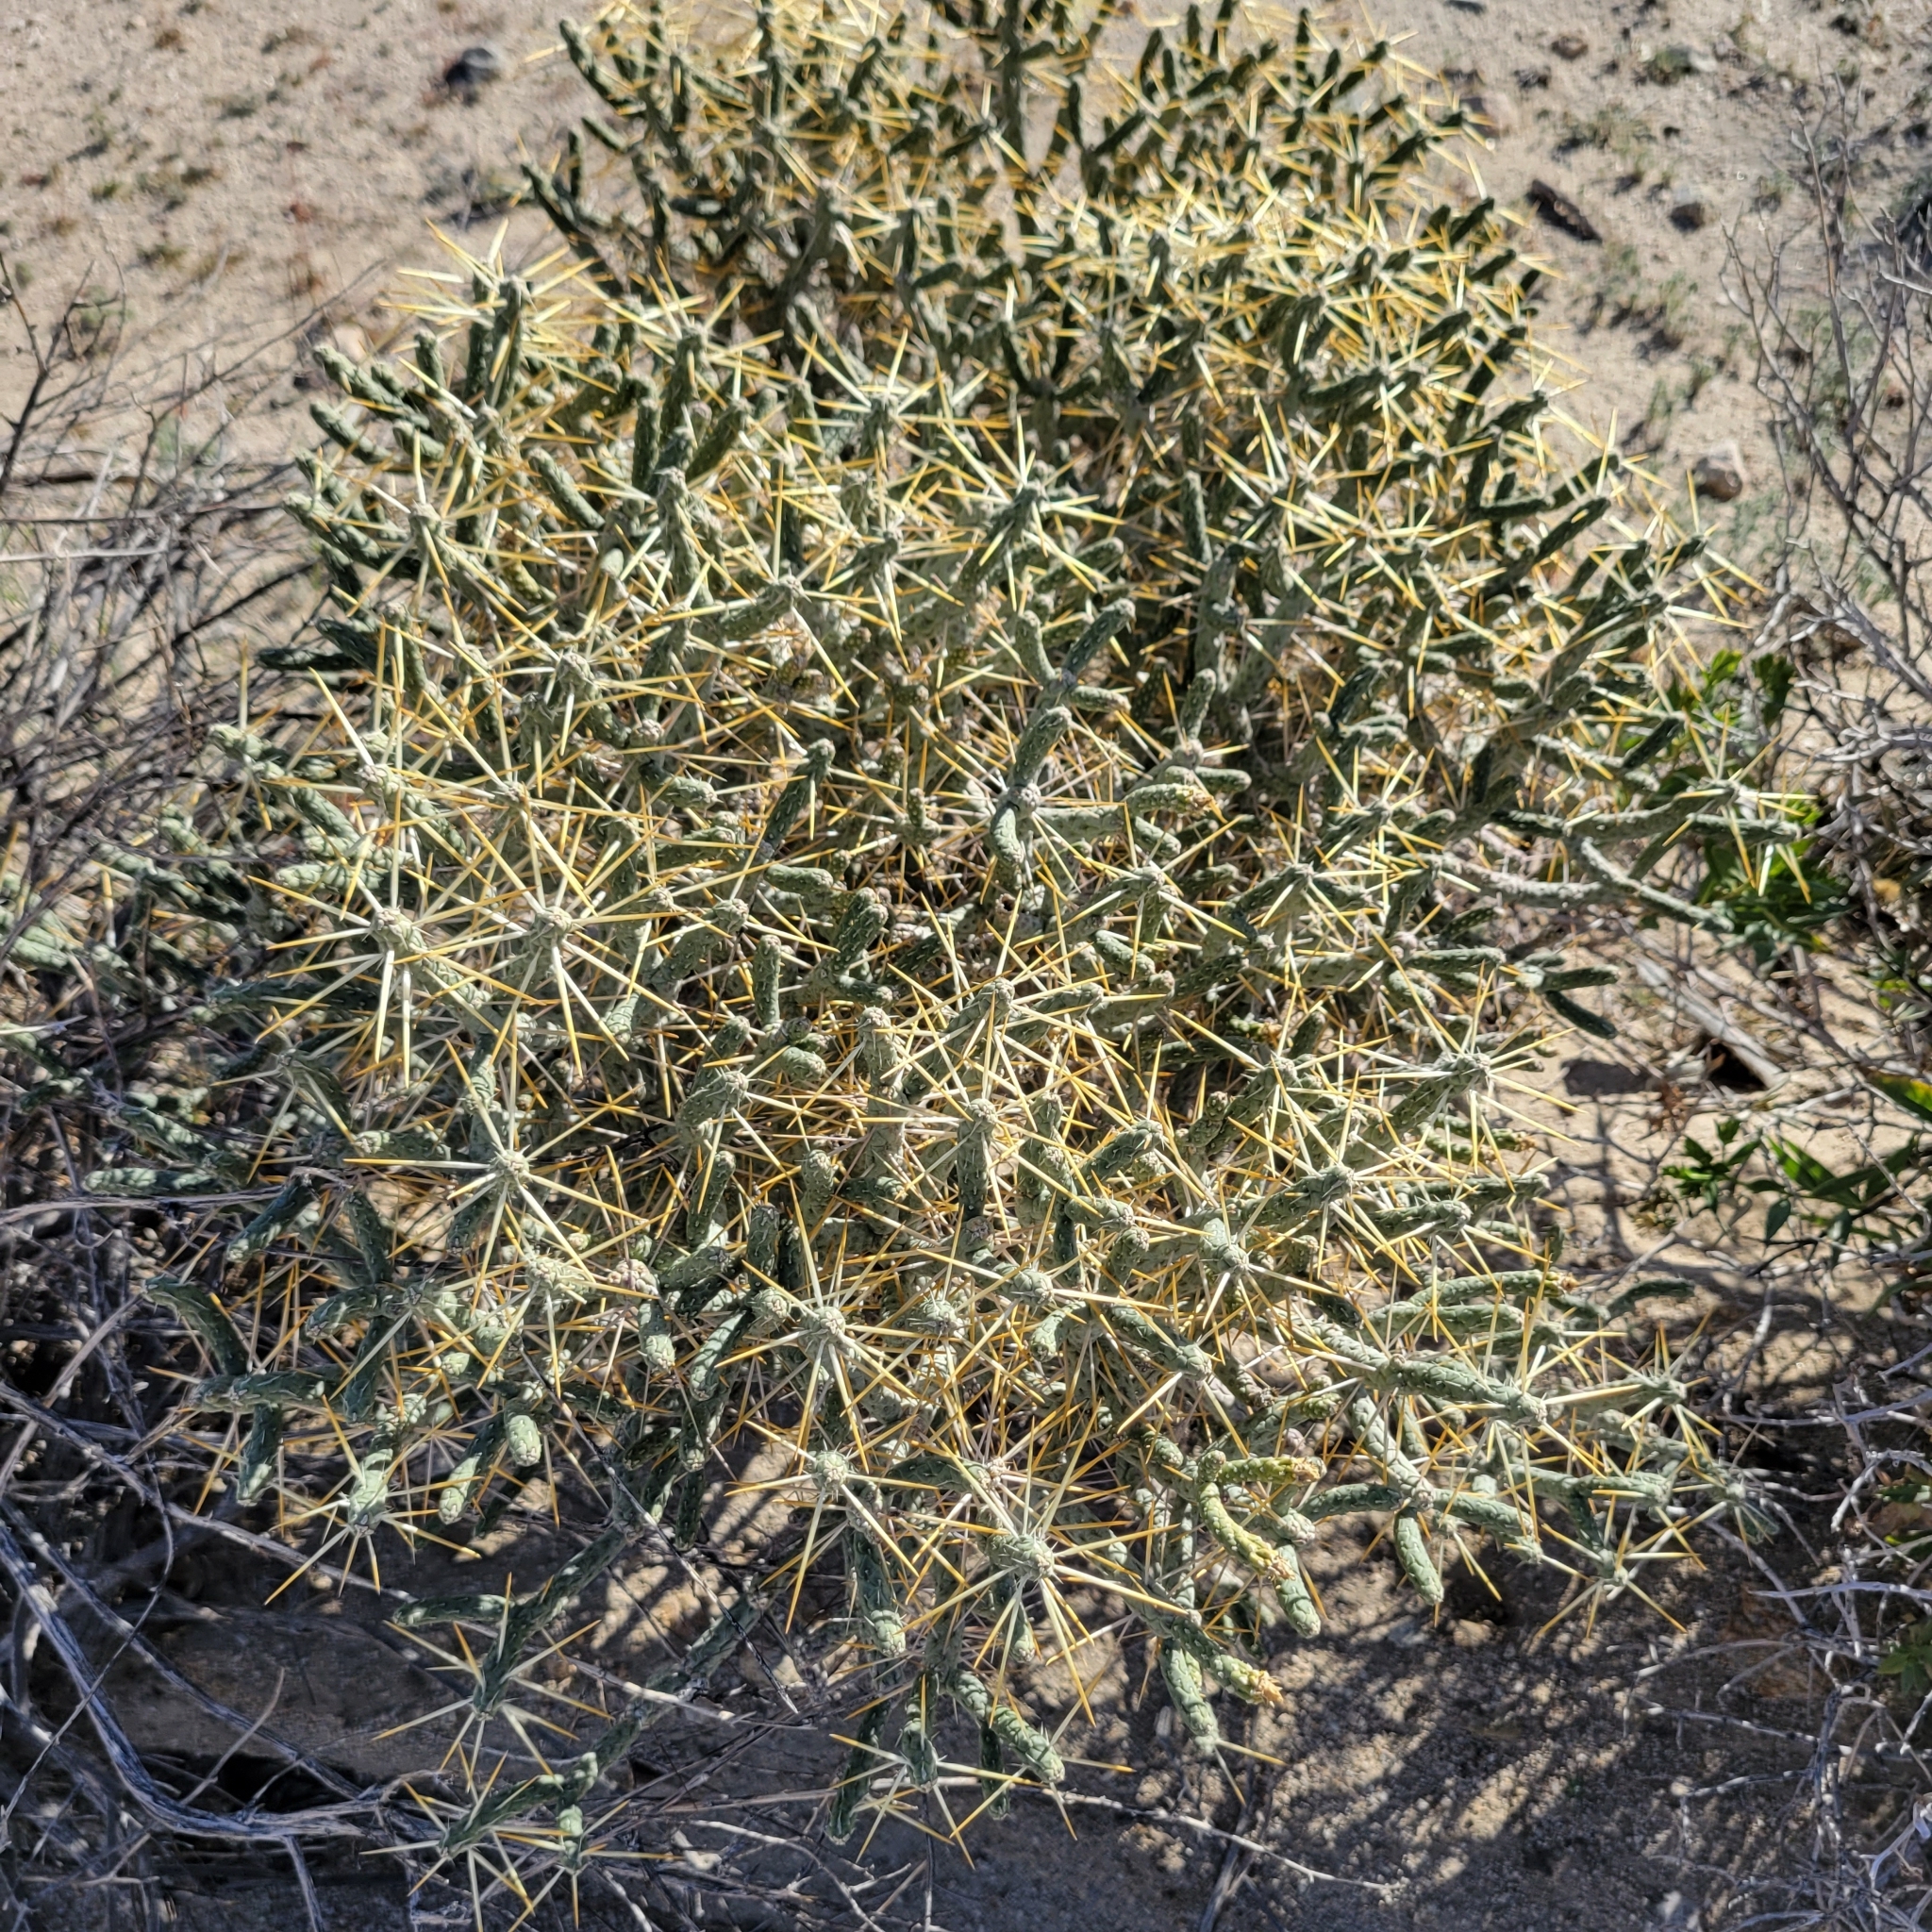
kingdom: Plantae
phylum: Tracheophyta
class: Magnoliopsida
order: Caryophyllales
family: Cactaceae
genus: Cylindropuntia
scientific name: Cylindropuntia ramosissima
